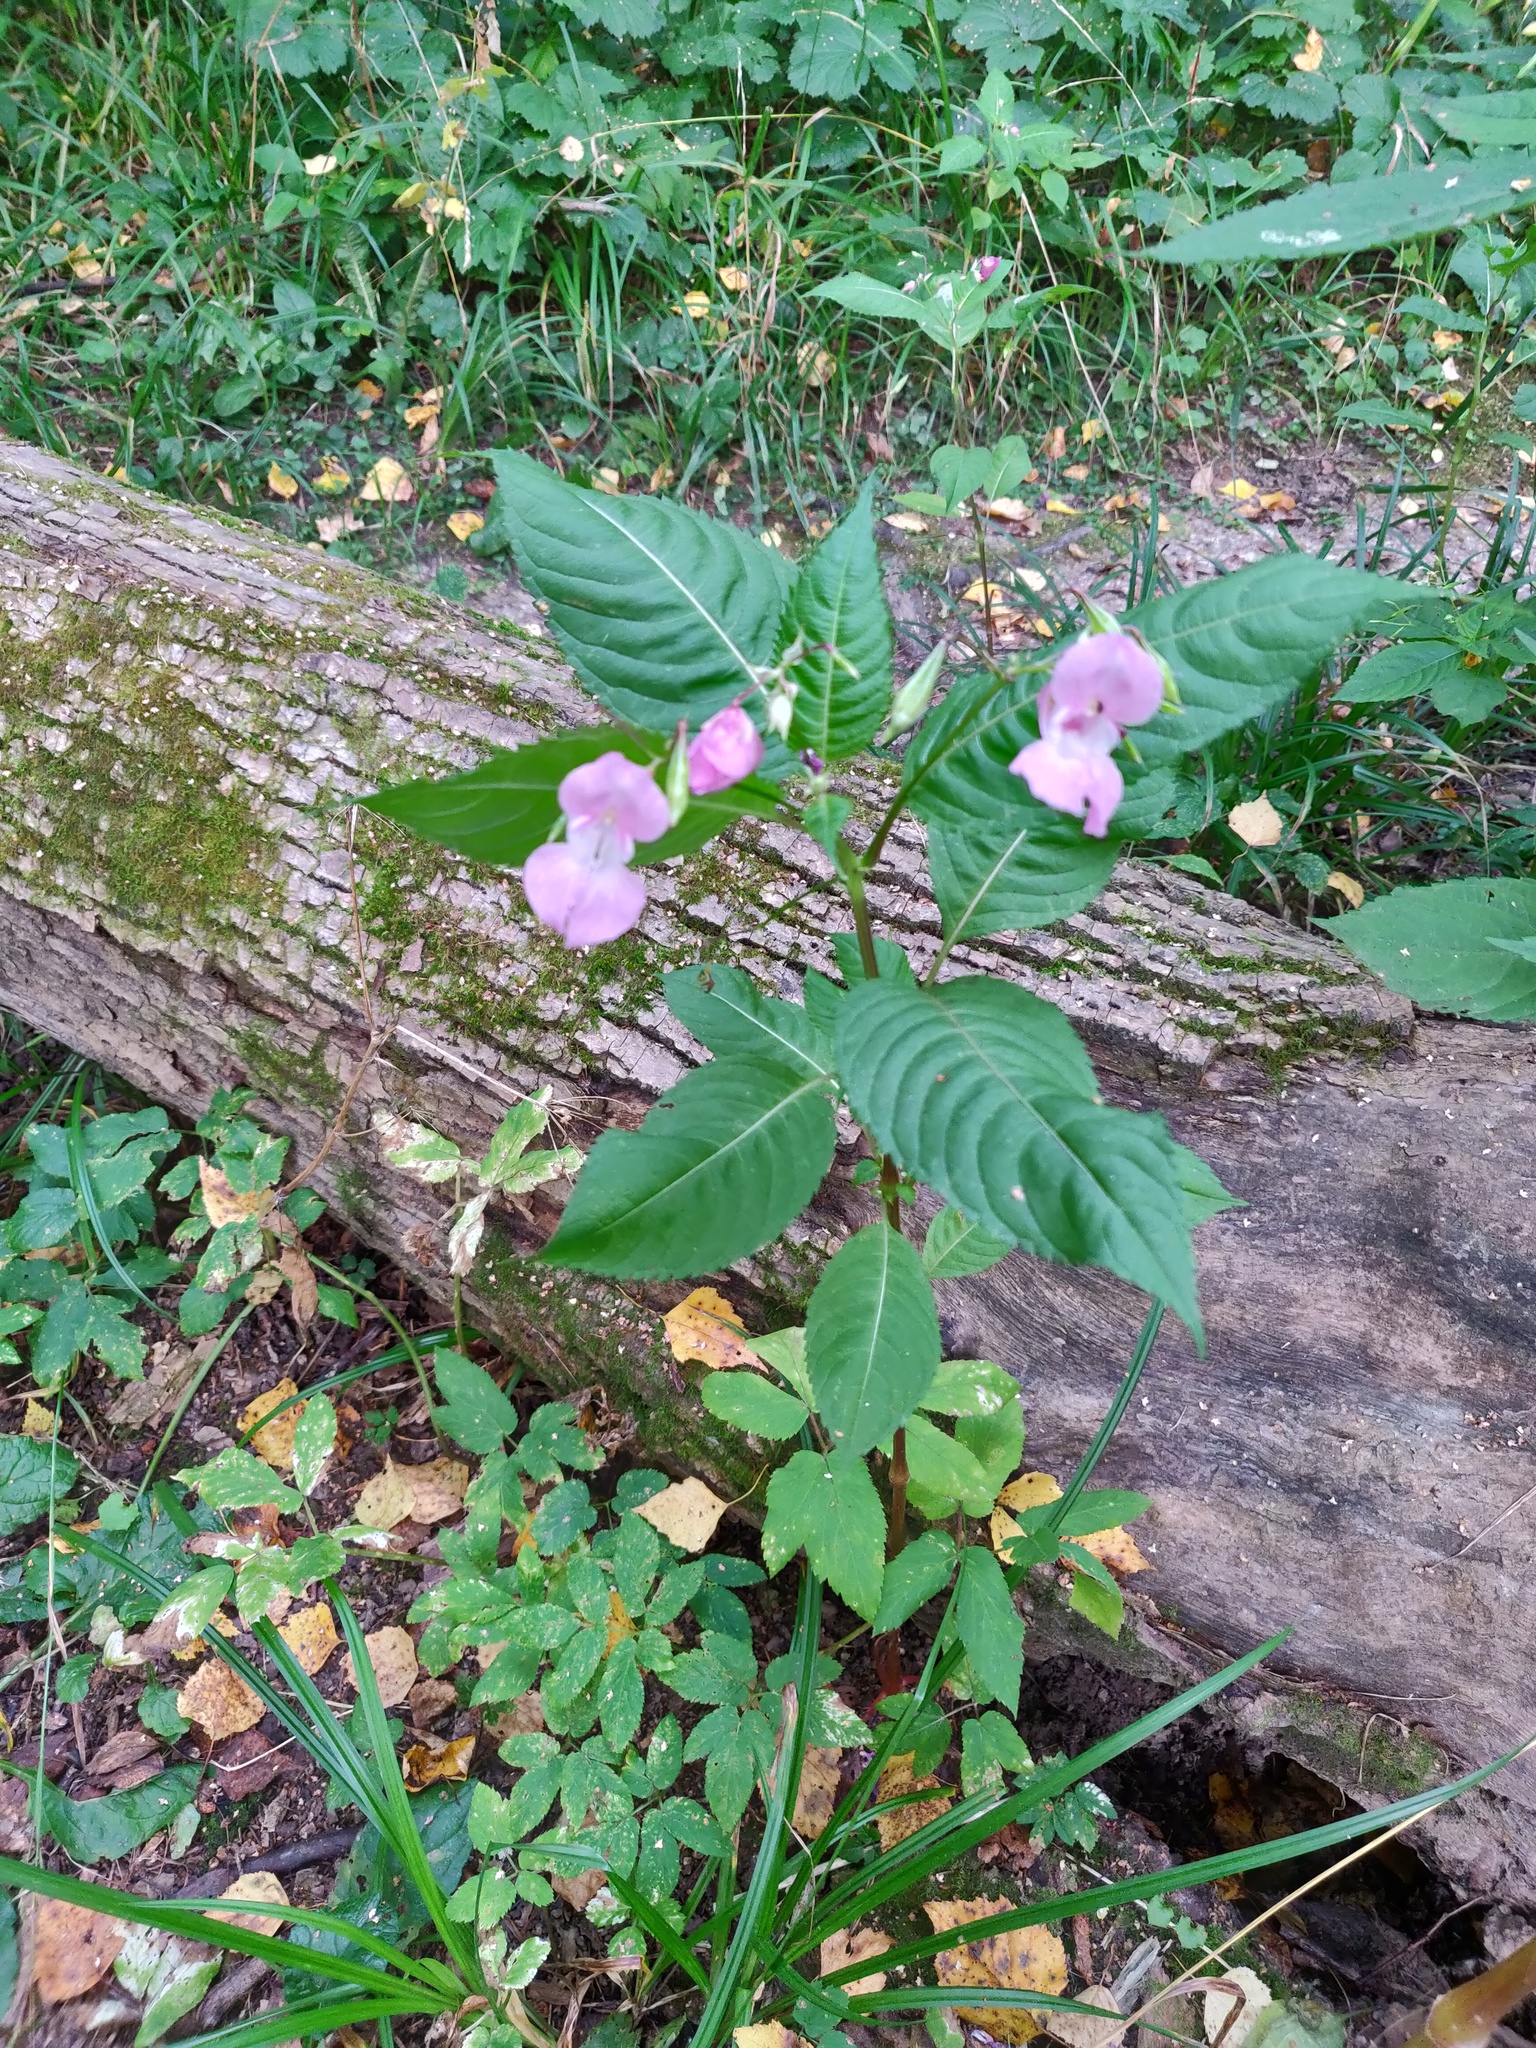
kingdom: Plantae
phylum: Tracheophyta
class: Magnoliopsida
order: Ericales
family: Balsaminaceae
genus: Impatiens
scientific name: Impatiens glandulifera
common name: Himalayan balsam
